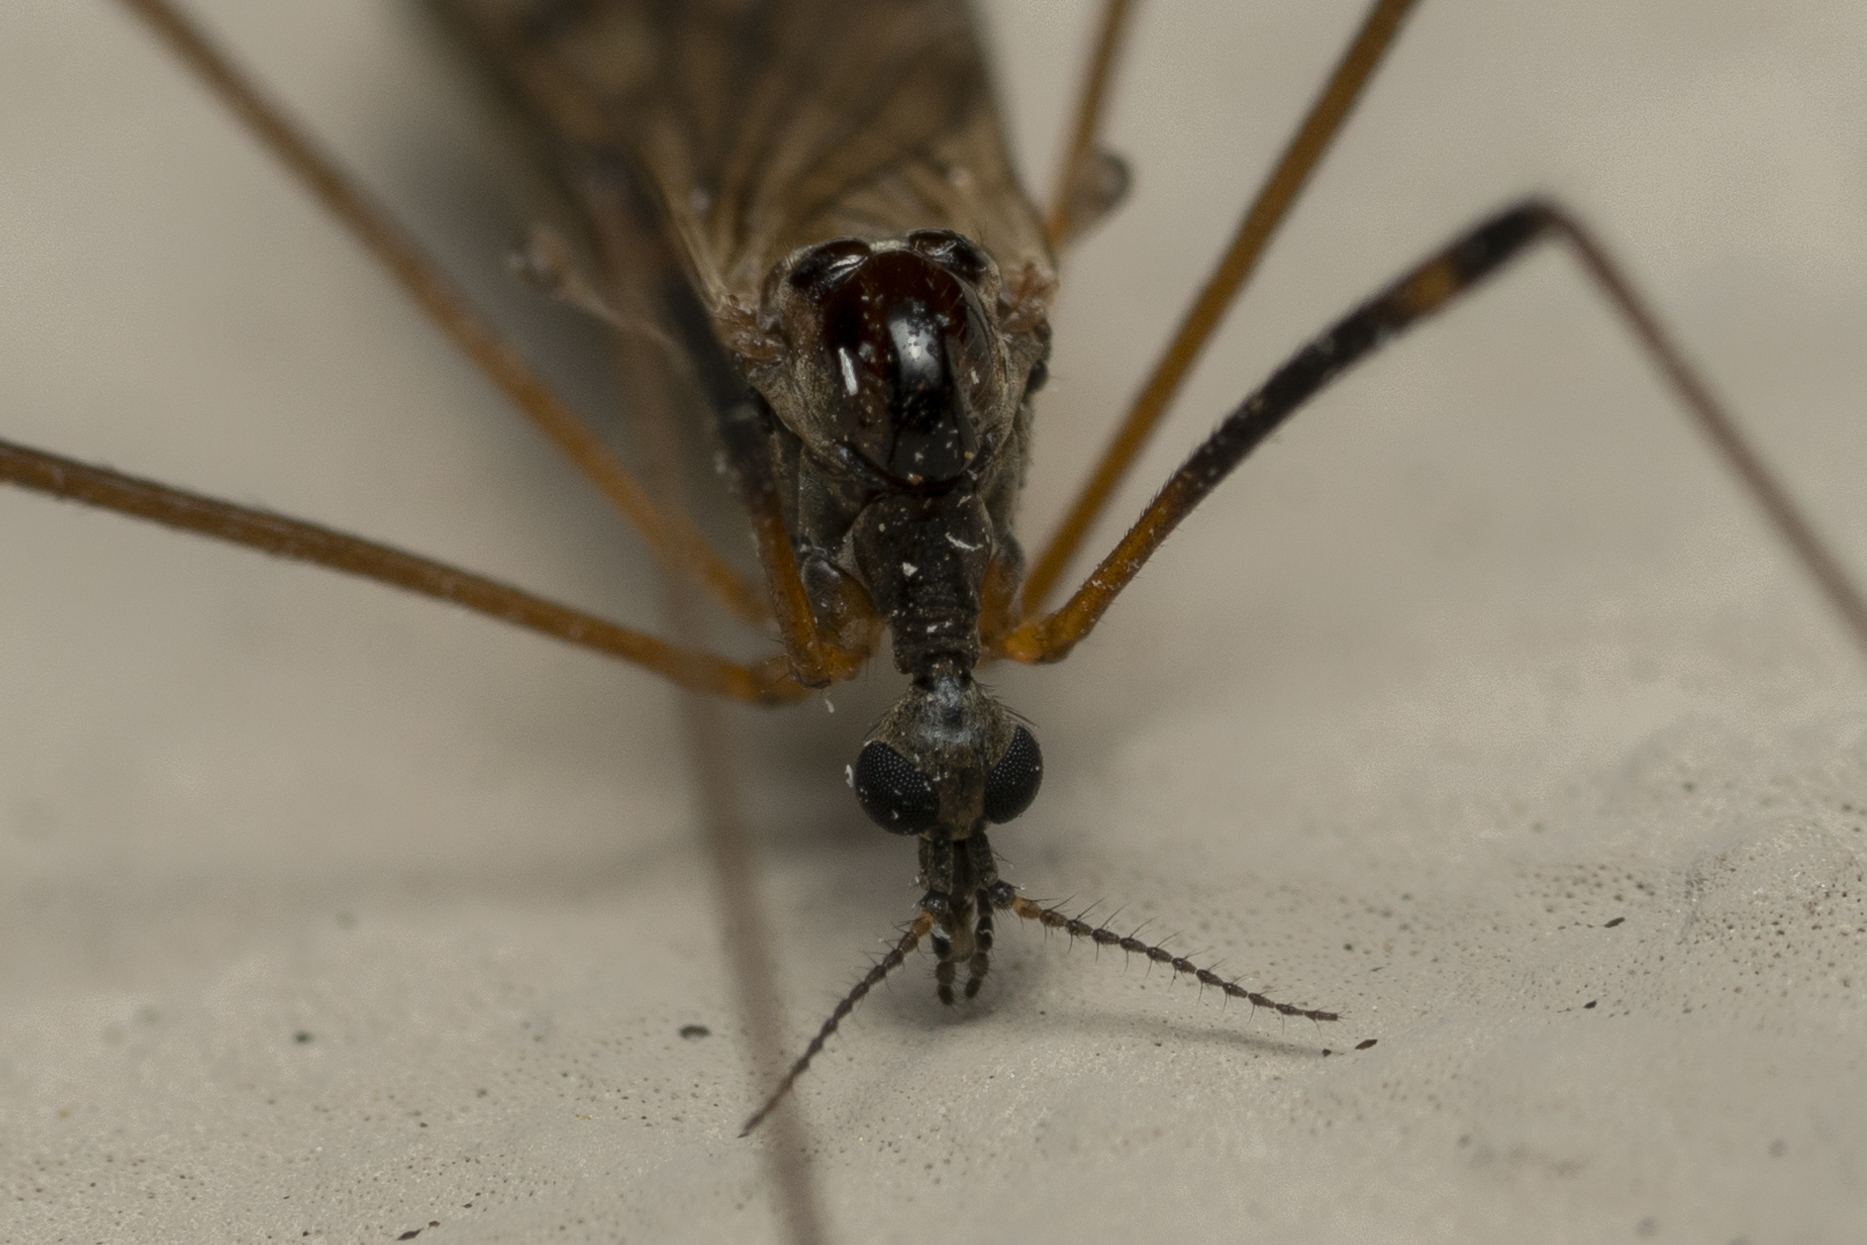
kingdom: Animalia
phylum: Arthropoda
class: Insecta
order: Diptera
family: Limoniidae
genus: Limonia
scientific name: Limonia nussbaumi
